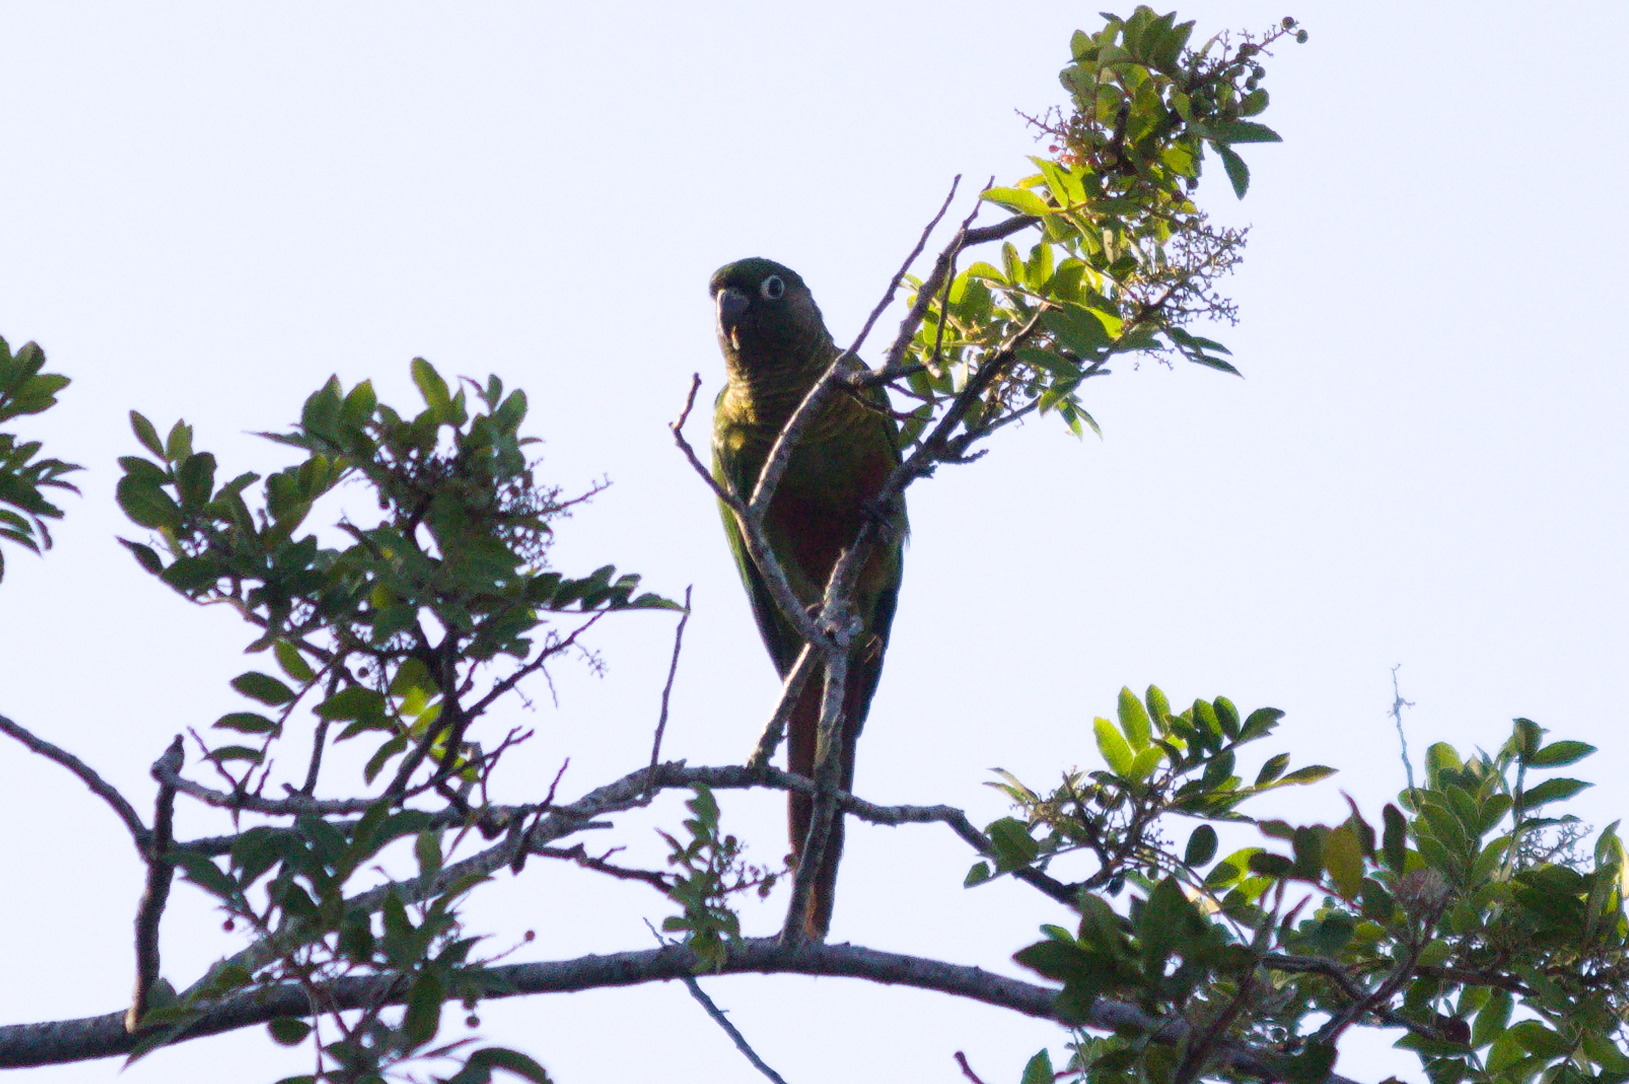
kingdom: Animalia
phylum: Chordata
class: Aves
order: Psittaciformes
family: Psittacidae
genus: Pyrrhura
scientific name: Pyrrhura frontalis
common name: Maroon-bellied parakeet
